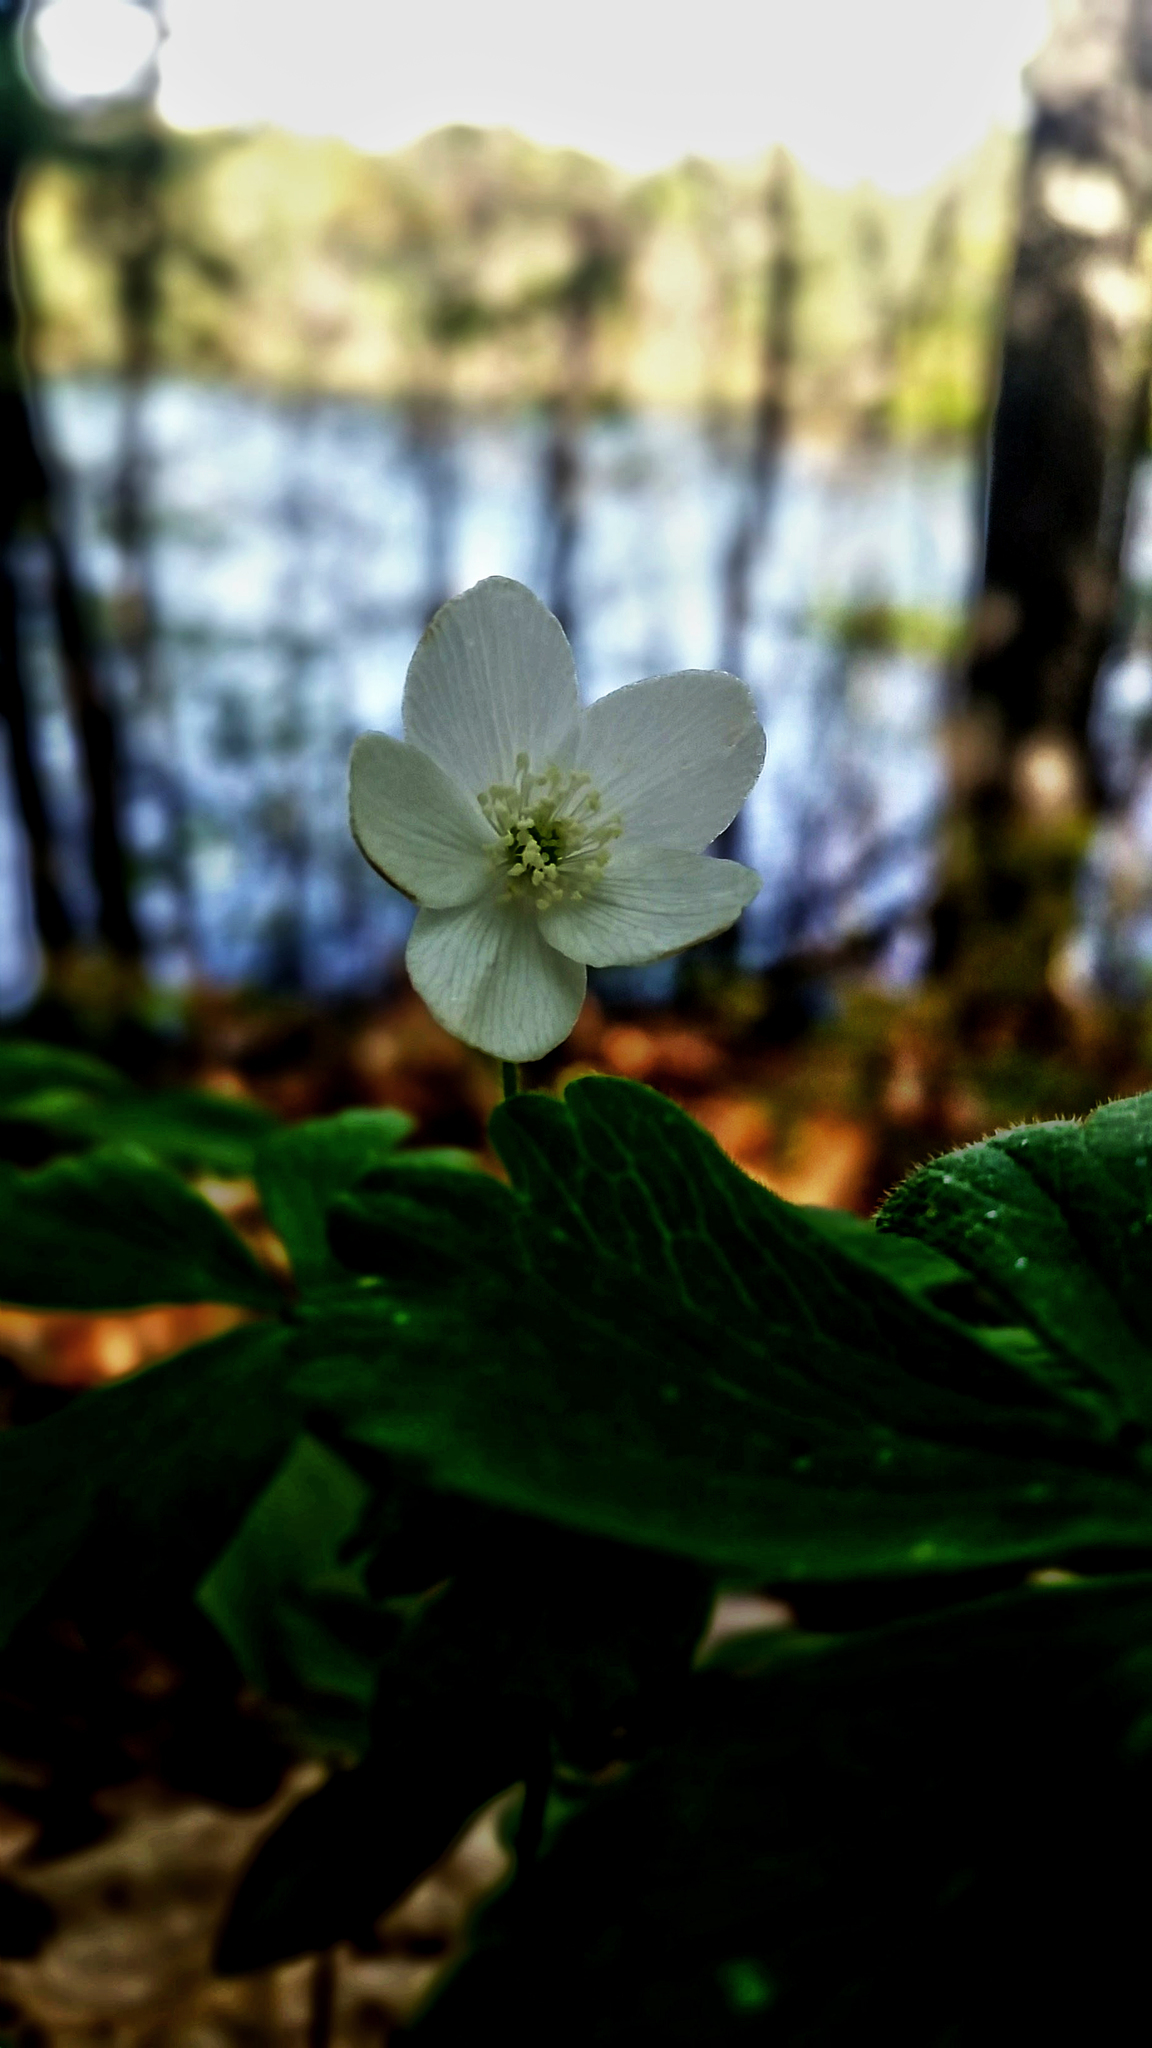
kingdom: Plantae
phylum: Tracheophyta
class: Magnoliopsida
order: Ranunculales
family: Ranunculaceae
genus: Anemone
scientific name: Anemone quinquefolia
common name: Wood anemone
